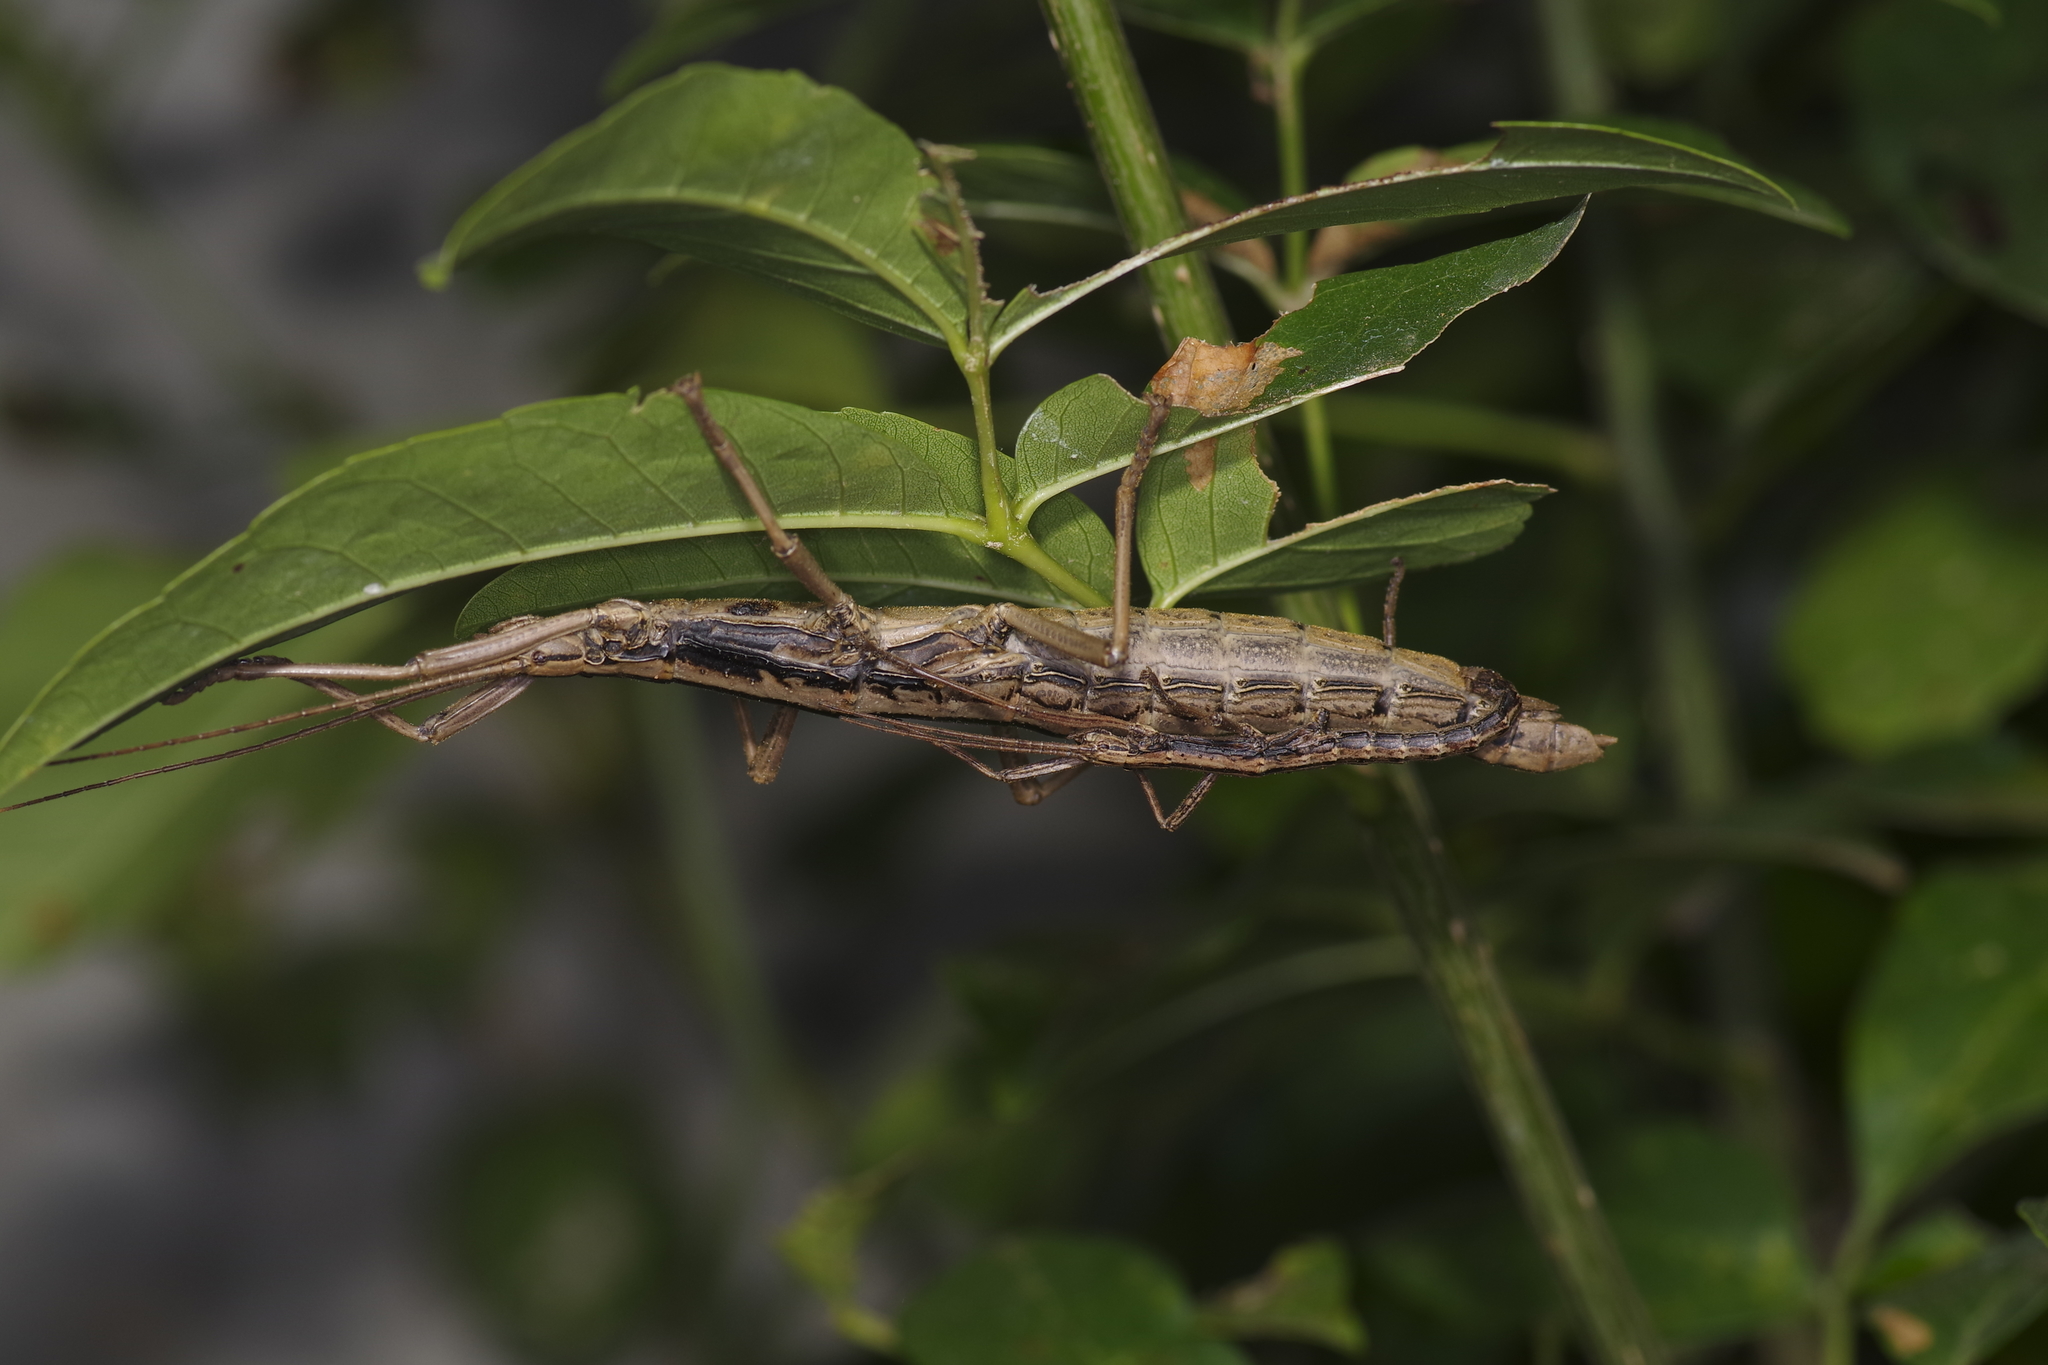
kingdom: Animalia
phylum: Arthropoda
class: Insecta
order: Phasmida
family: Pseudophasmatidae
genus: Anisomorpha
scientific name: Anisomorpha buprestoides
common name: Florida stick insect
